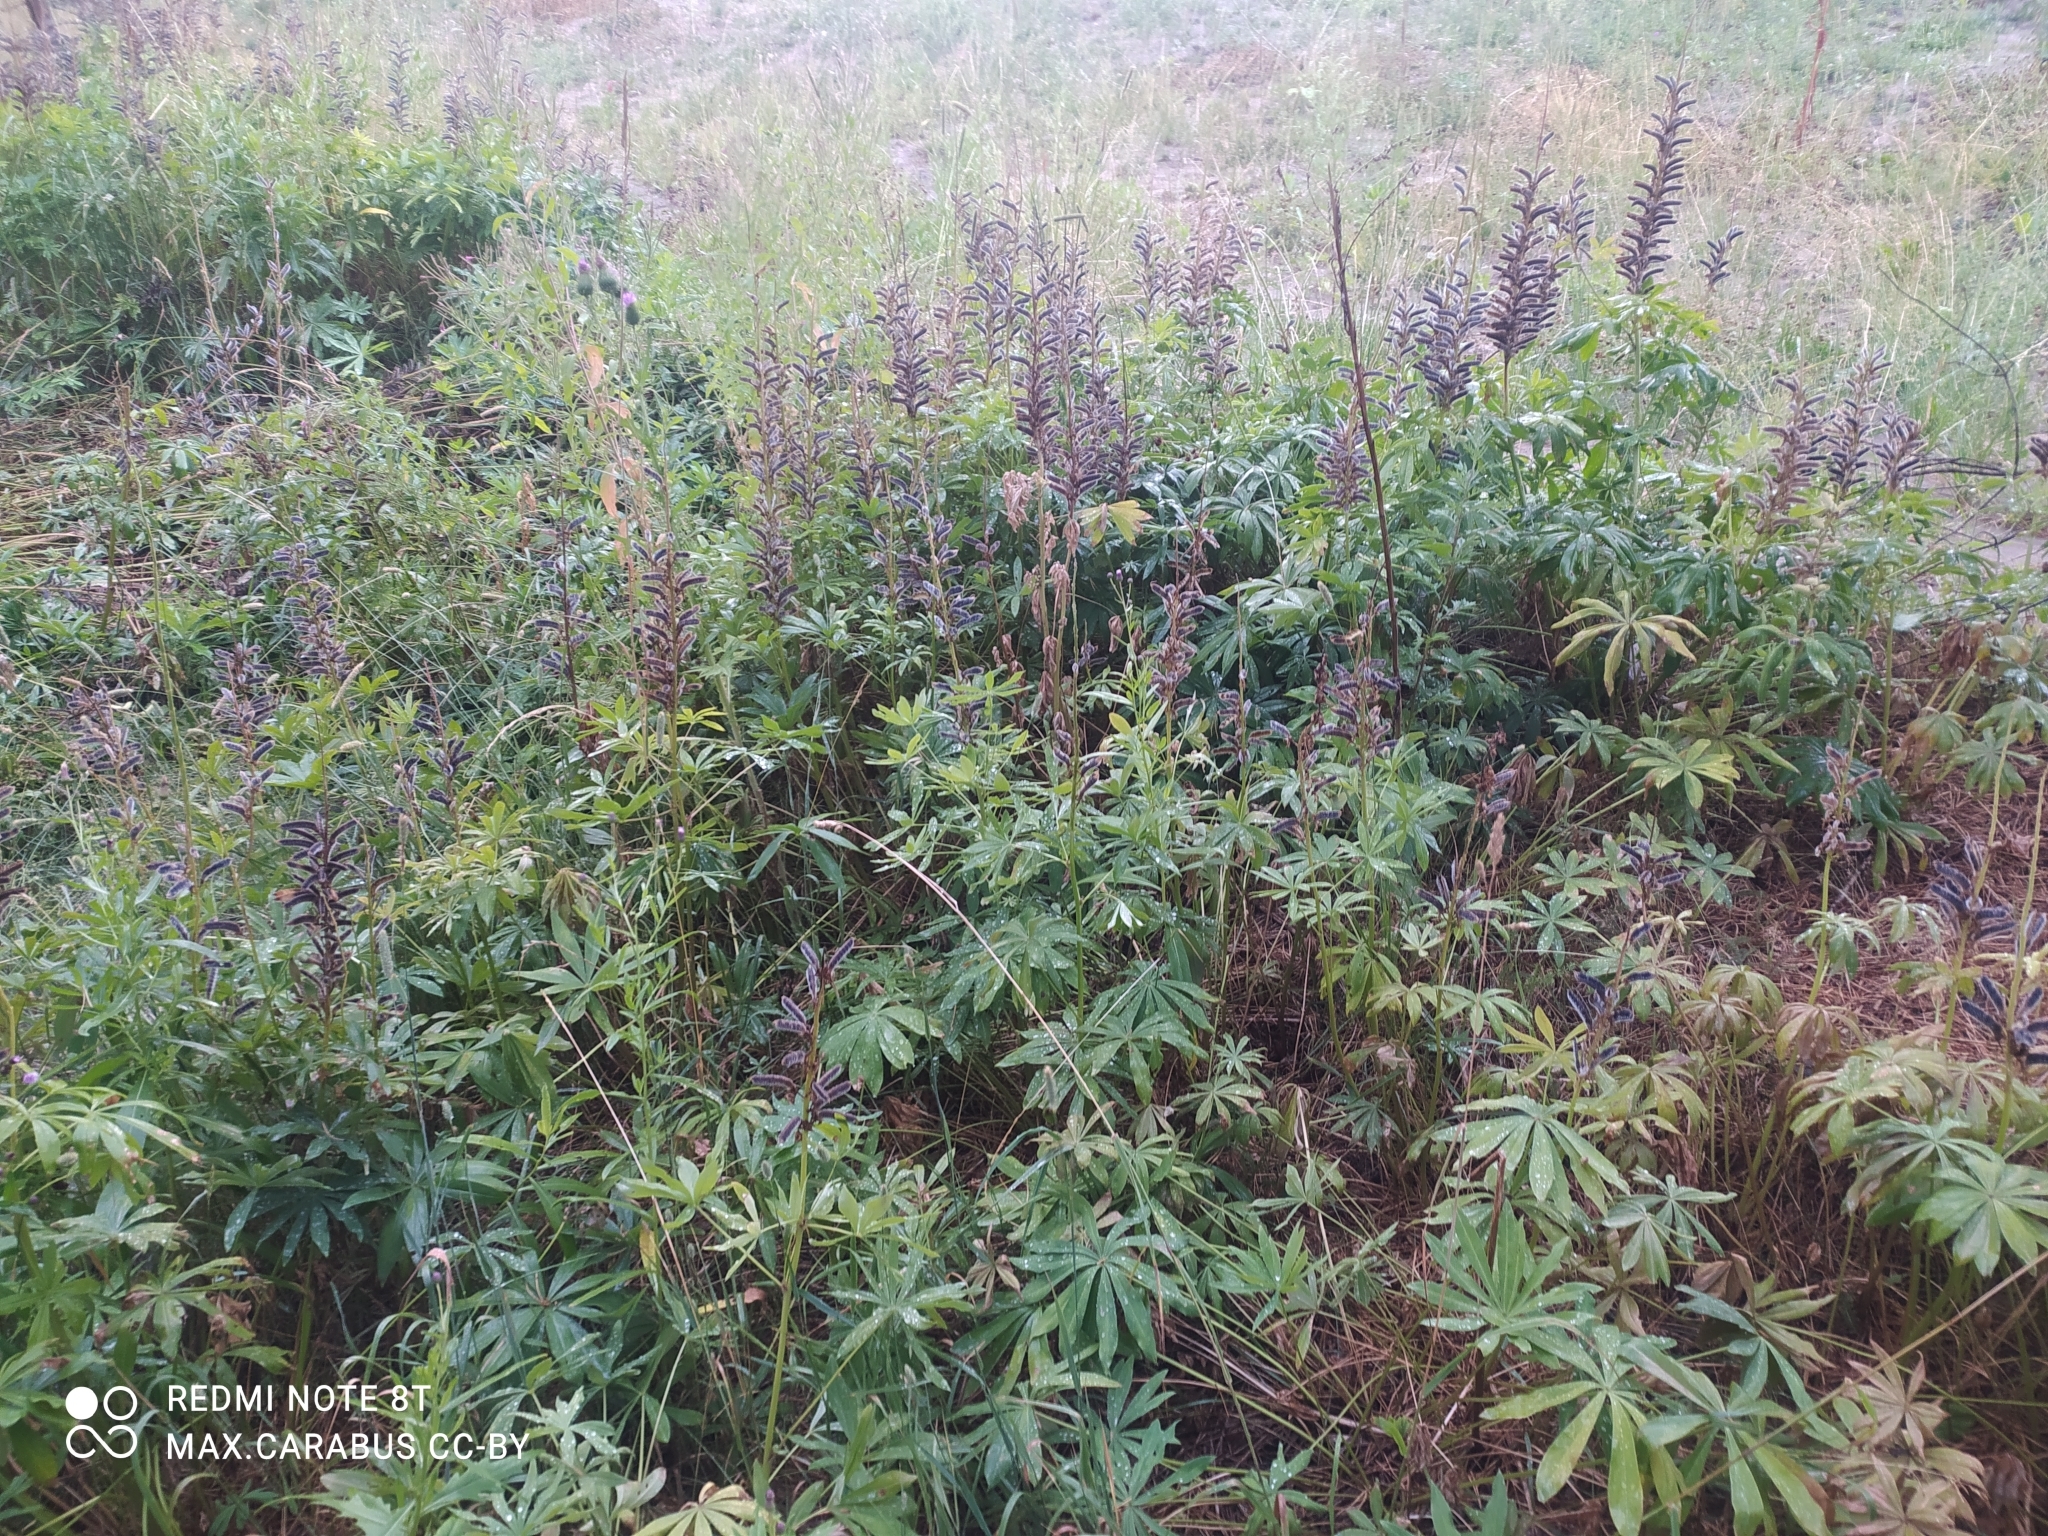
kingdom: Plantae
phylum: Tracheophyta
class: Magnoliopsida
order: Fabales
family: Fabaceae
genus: Lupinus
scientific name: Lupinus polyphyllus
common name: Garden lupin
